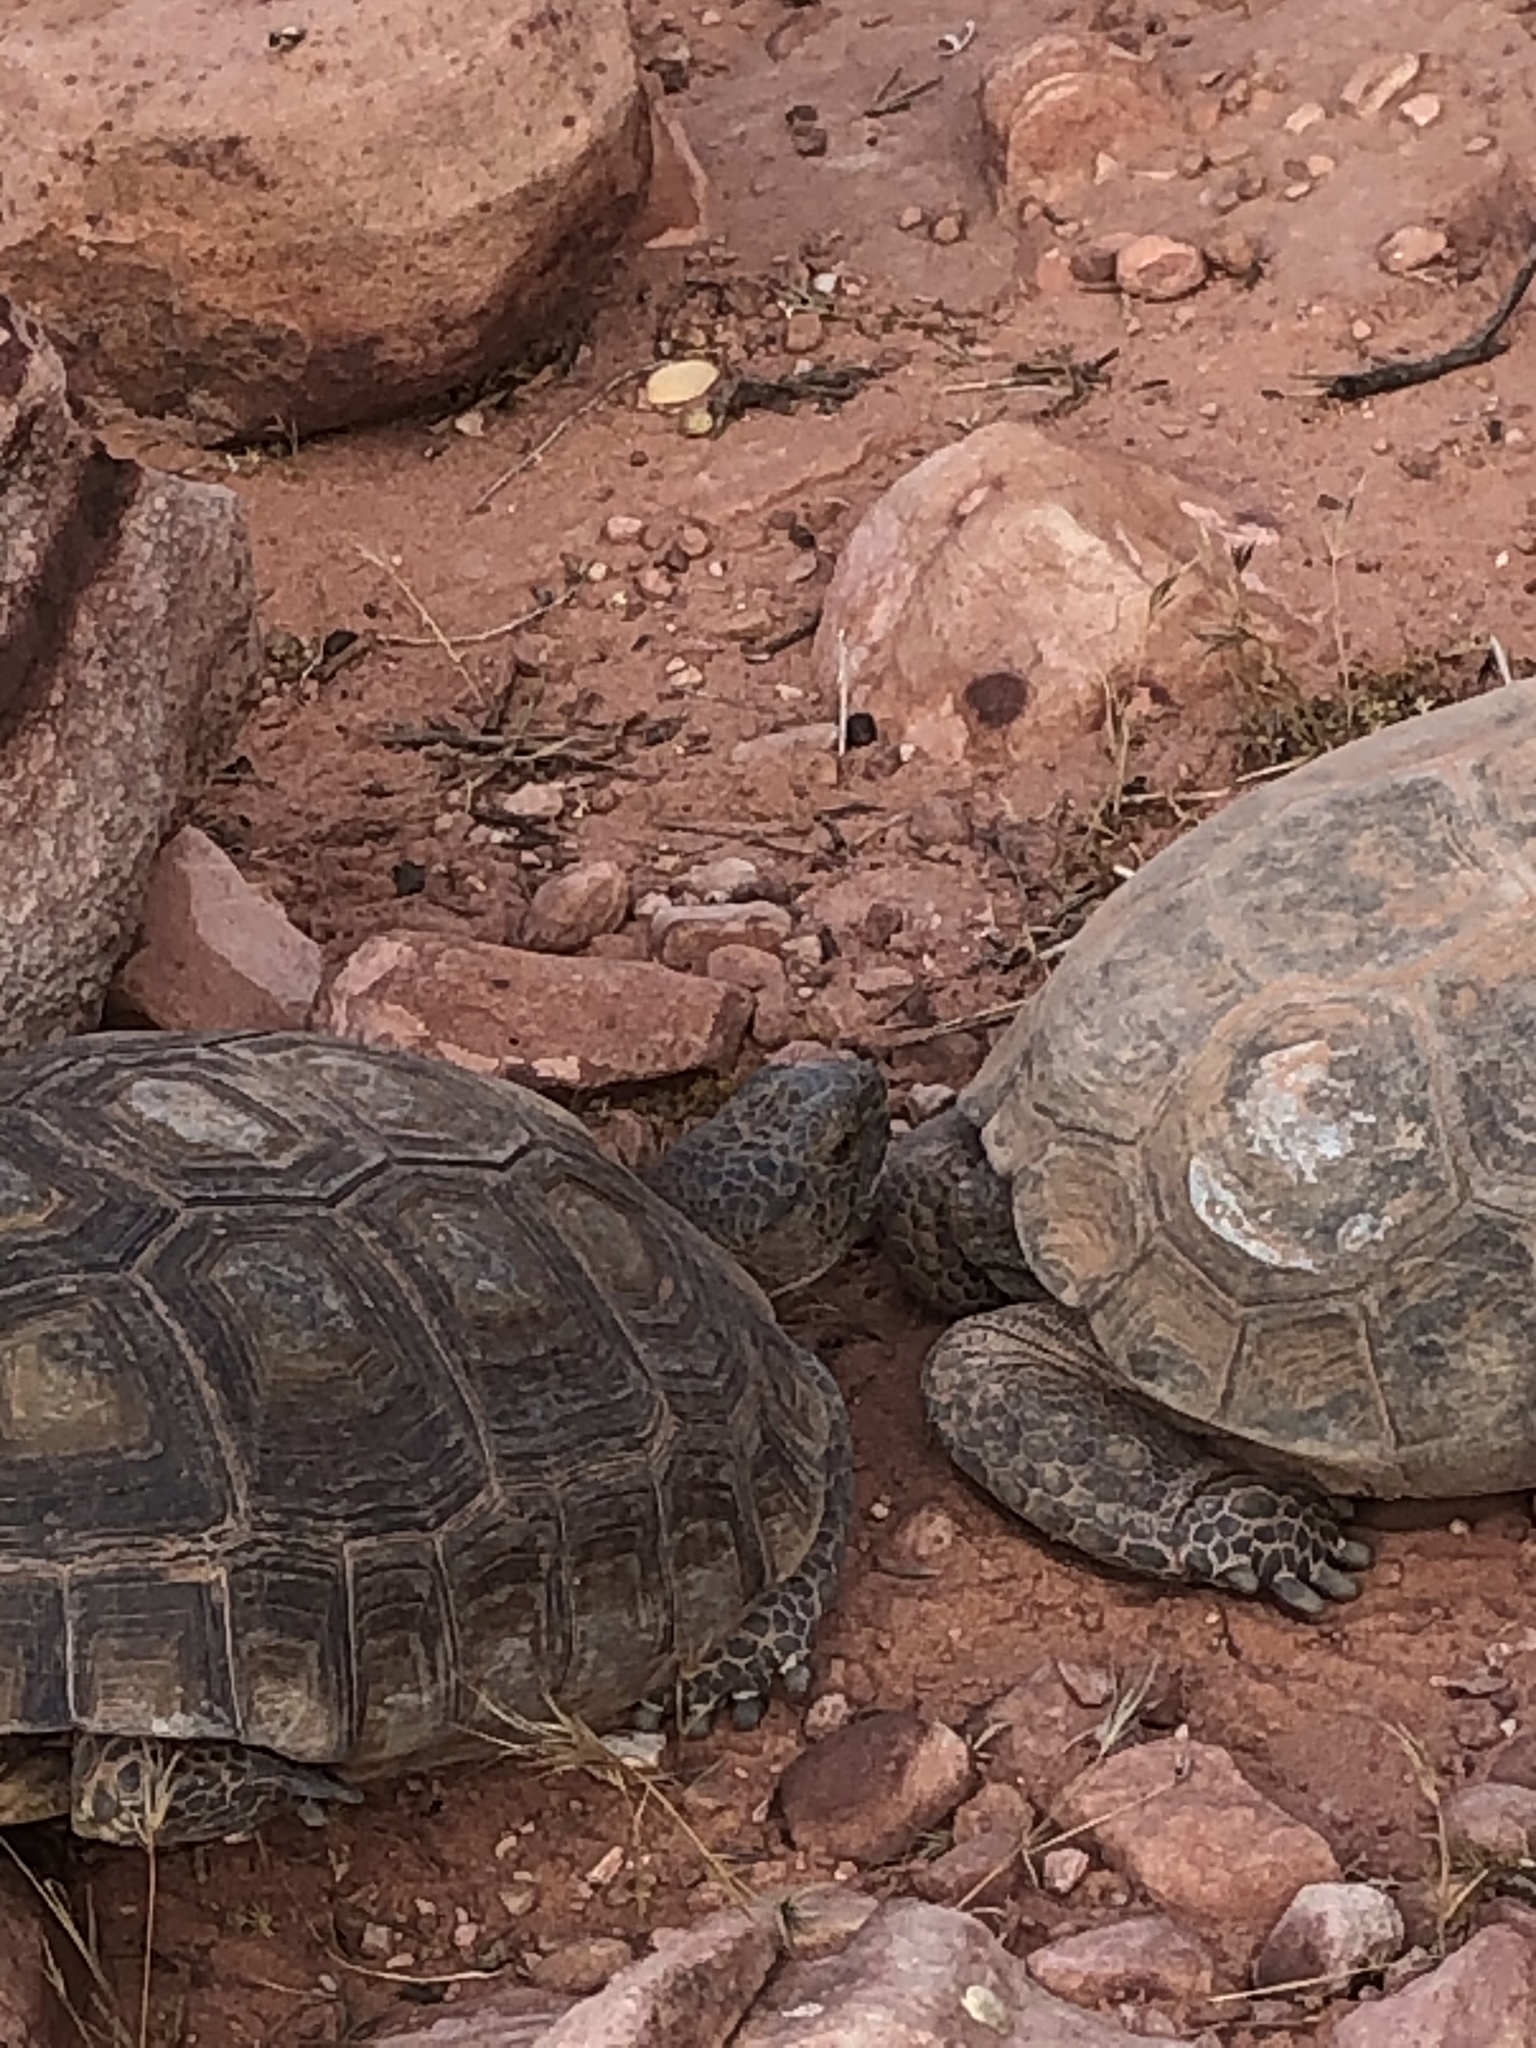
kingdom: Animalia
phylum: Chordata
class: Testudines
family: Testudinidae
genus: Gopherus
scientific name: Gopherus agassizii
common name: Mojave desert tortoise
